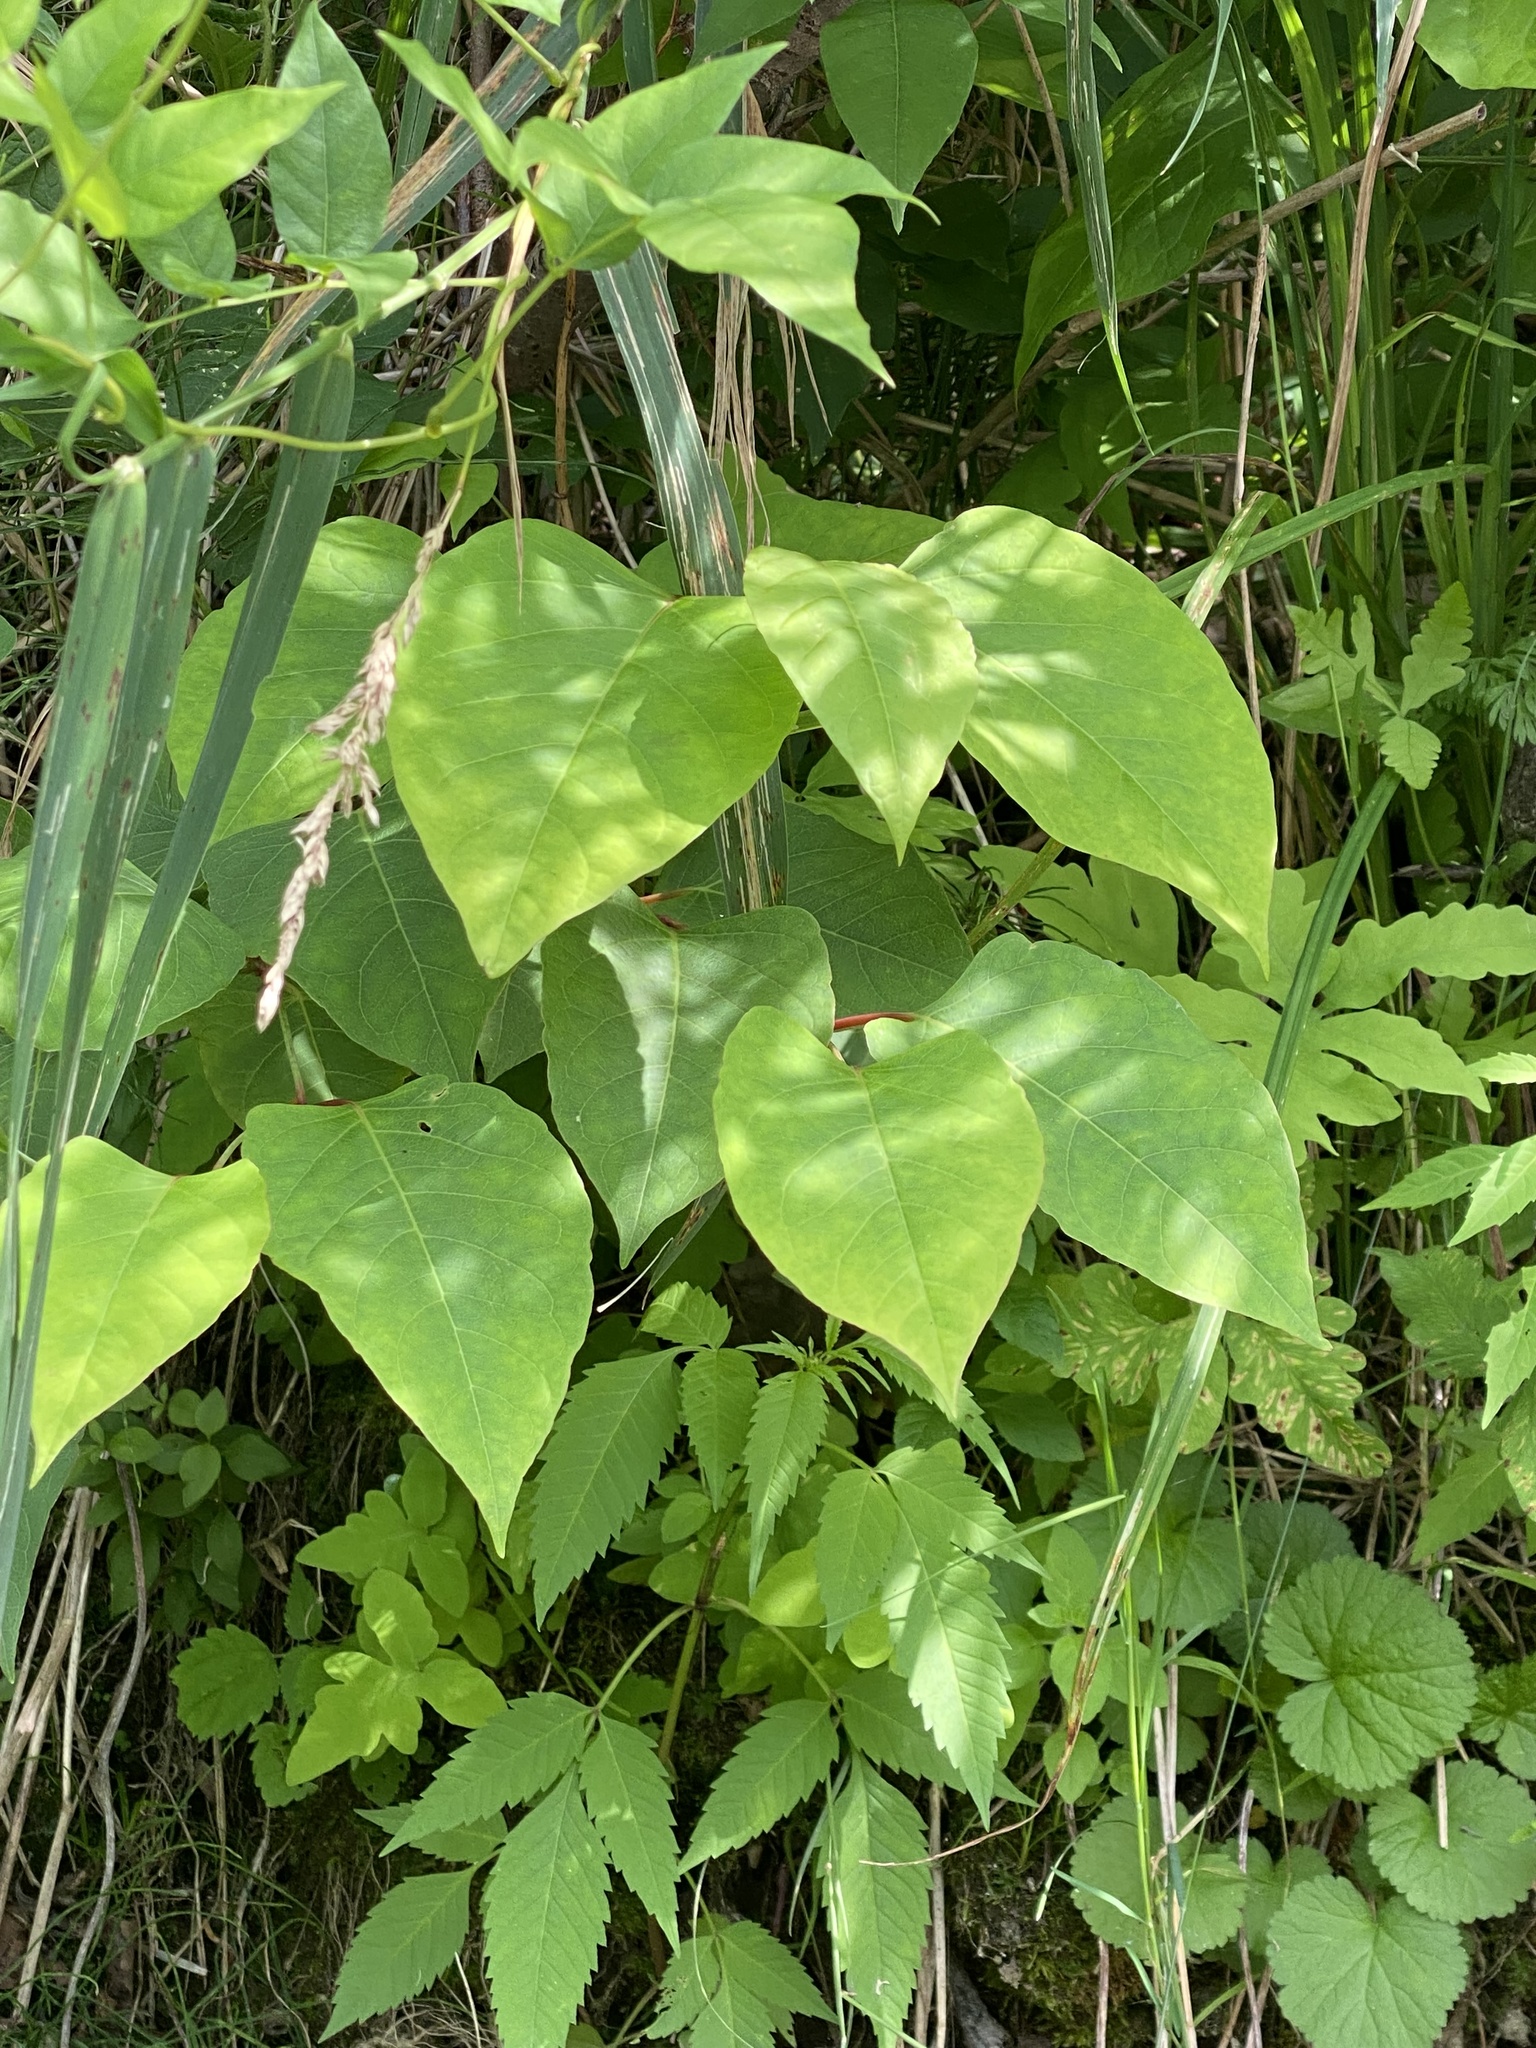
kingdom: Plantae
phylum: Tracheophyta
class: Magnoliopsida
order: Caryophyllales
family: Polygonaceae
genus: Reynoutria
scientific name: Reynoutria japonica
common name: Japanese knotweed
